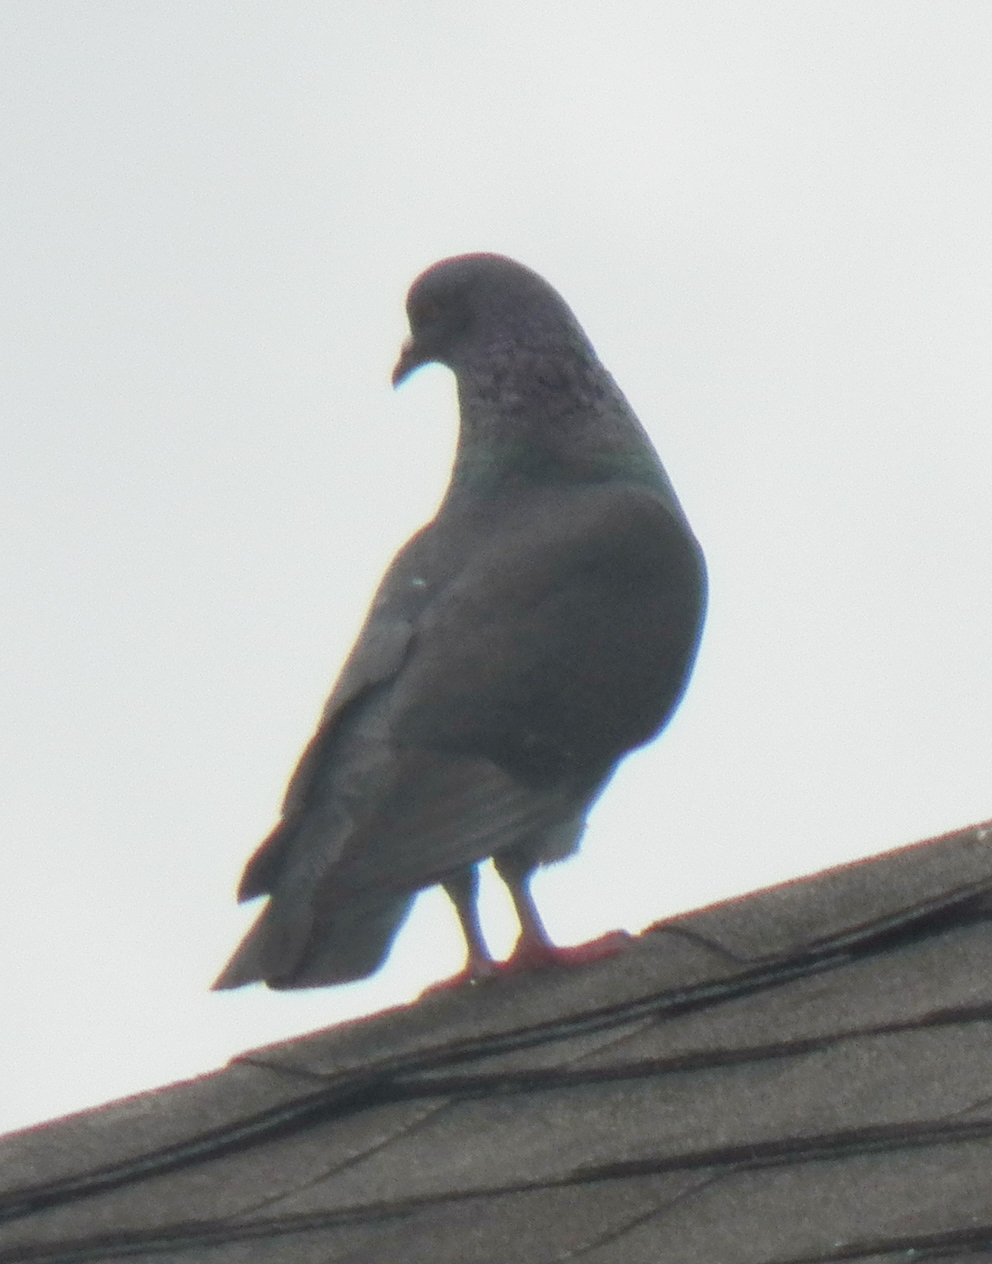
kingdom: Animalia
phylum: Chordata
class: Aves
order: Columbiformes
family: Columbidae
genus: Columba
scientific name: Columba livia
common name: Rock pigeon
